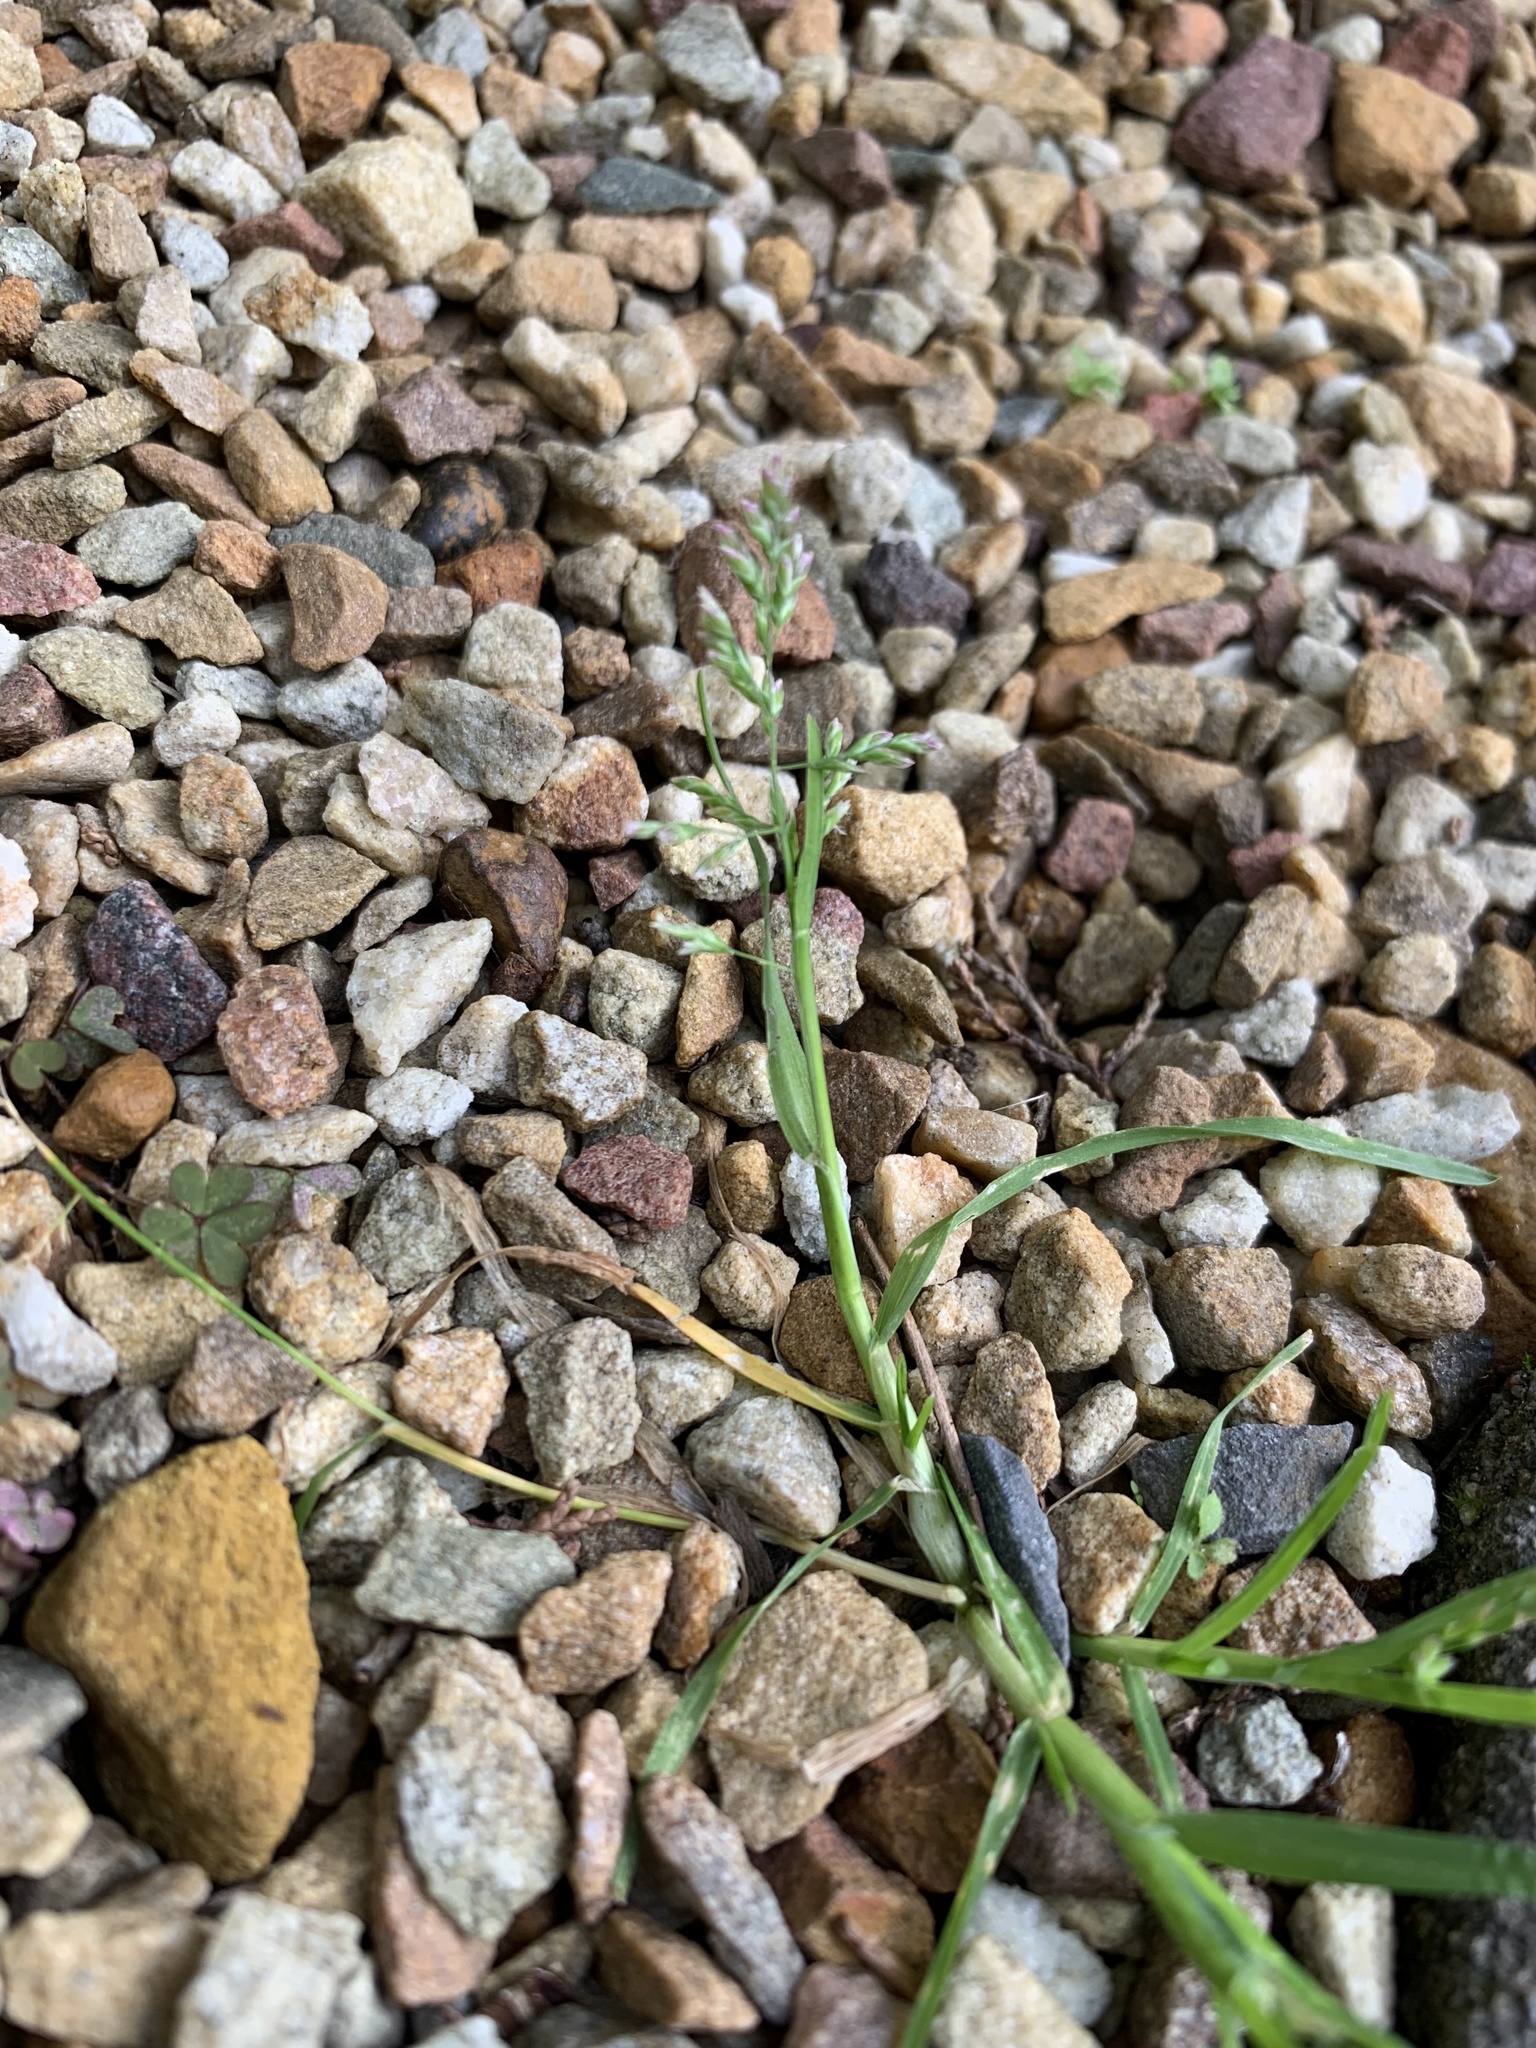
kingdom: Plantae
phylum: Tracheophyta
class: Liliopsida
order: Poales
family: Poaceae
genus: Poa
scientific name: Poa annua
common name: Annual bluegrass
